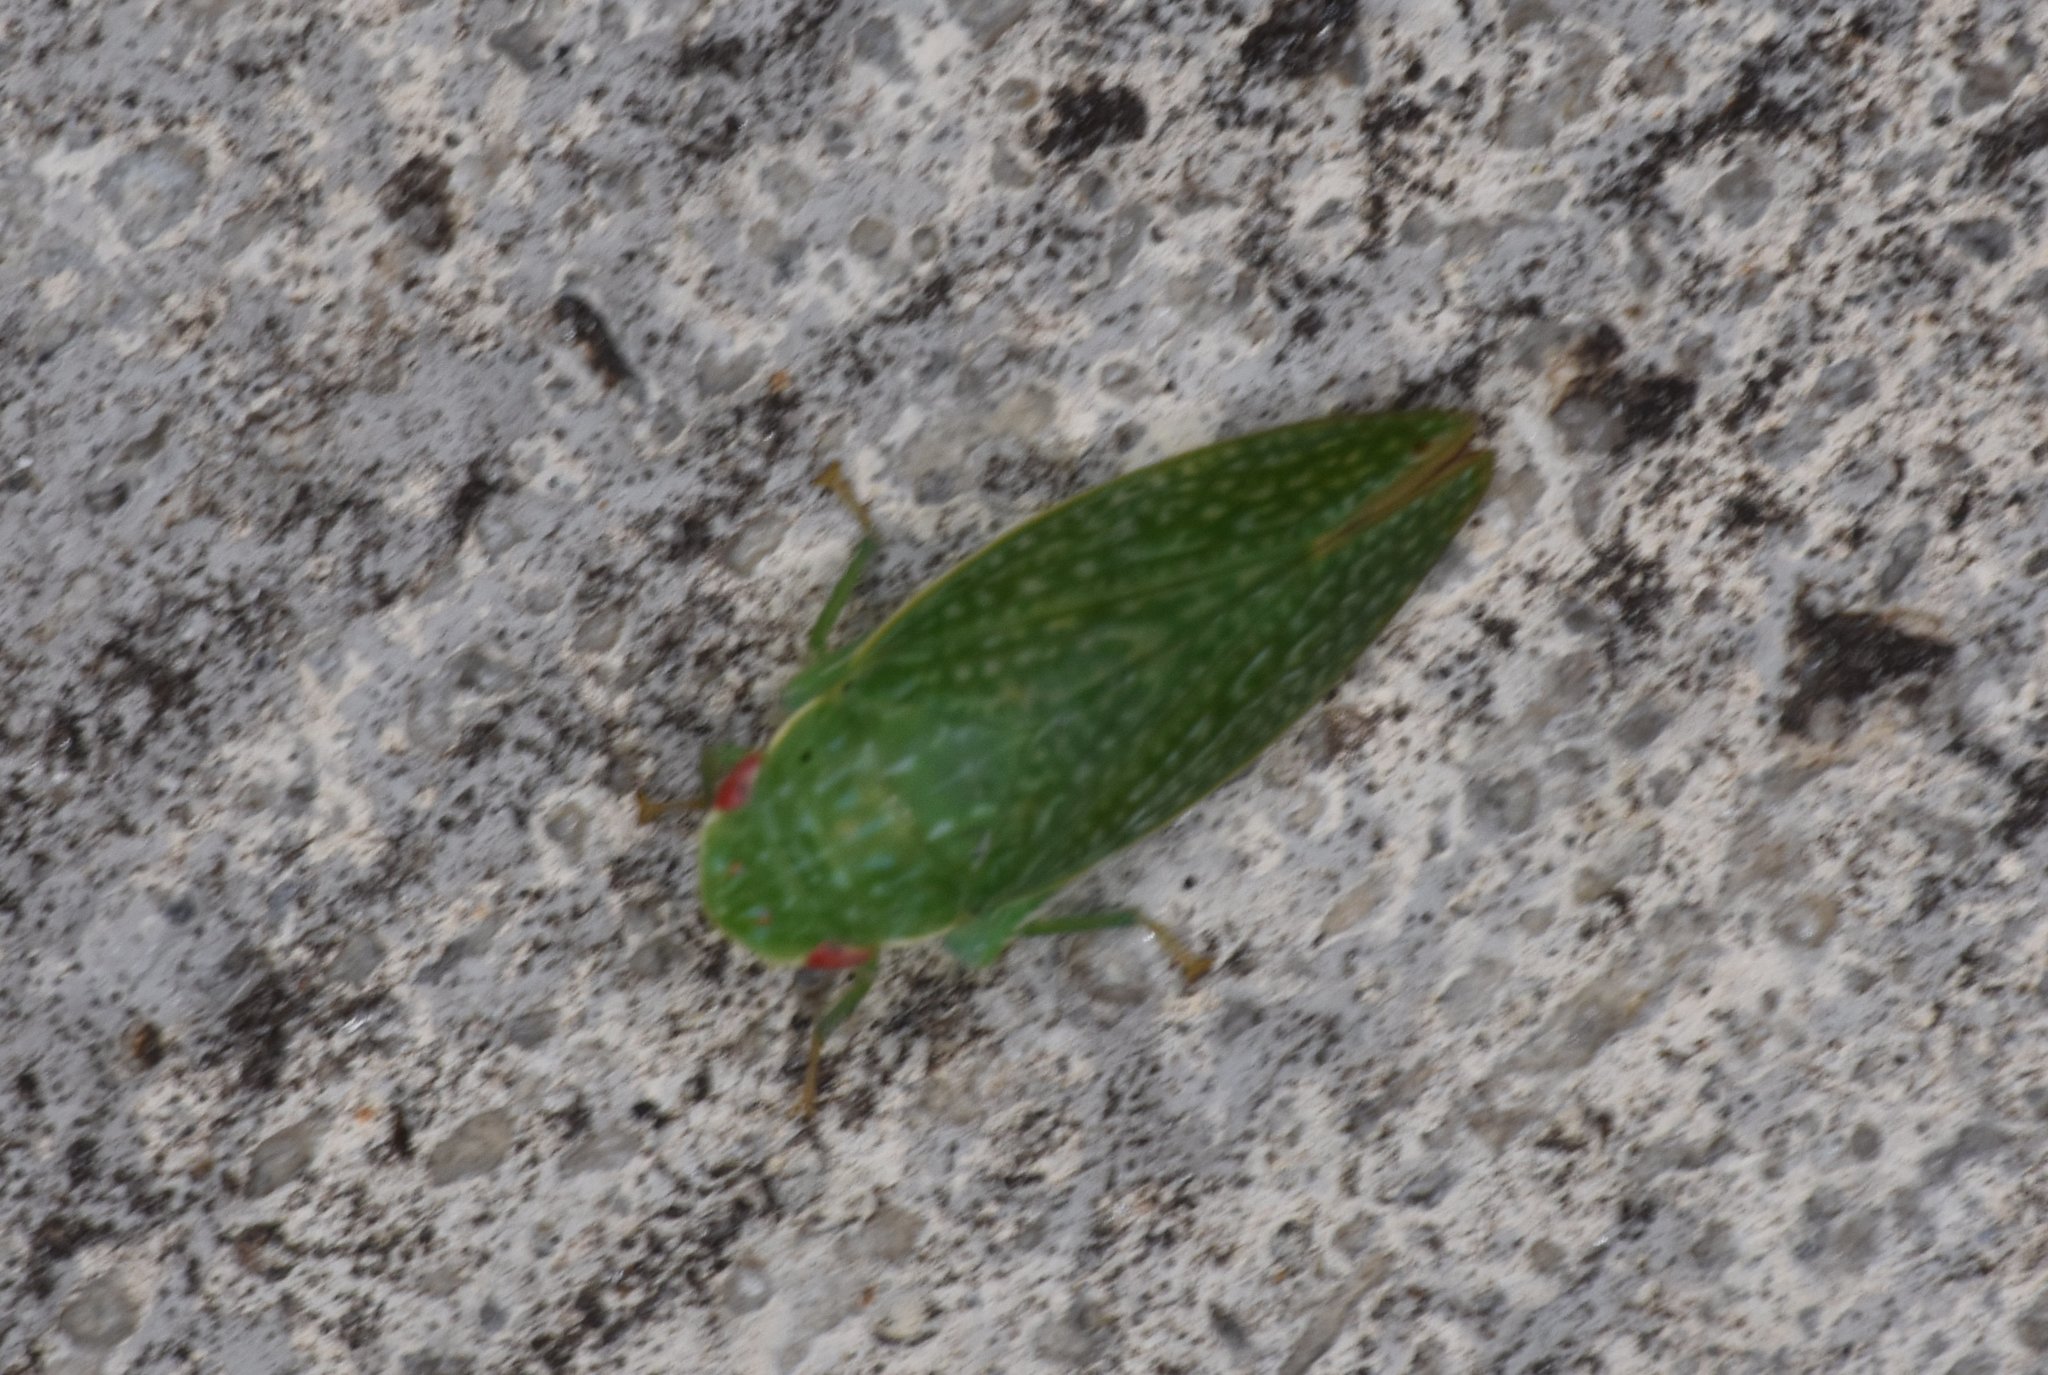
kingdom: Animalia
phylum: Arthropoda
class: Insecta
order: Hemiptera
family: Cicadellidae
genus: Rugosana
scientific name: Rugosana querci
